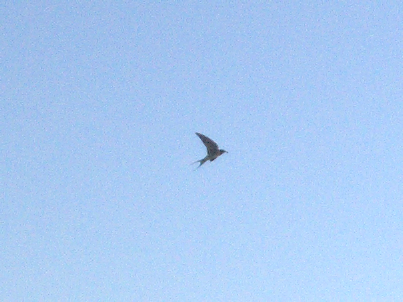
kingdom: Animalia
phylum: Chordata
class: Aves
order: Passeriformes
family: Hirundinidae
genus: Hirundo
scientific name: Hirundo neoxena
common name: Welcome swallow
